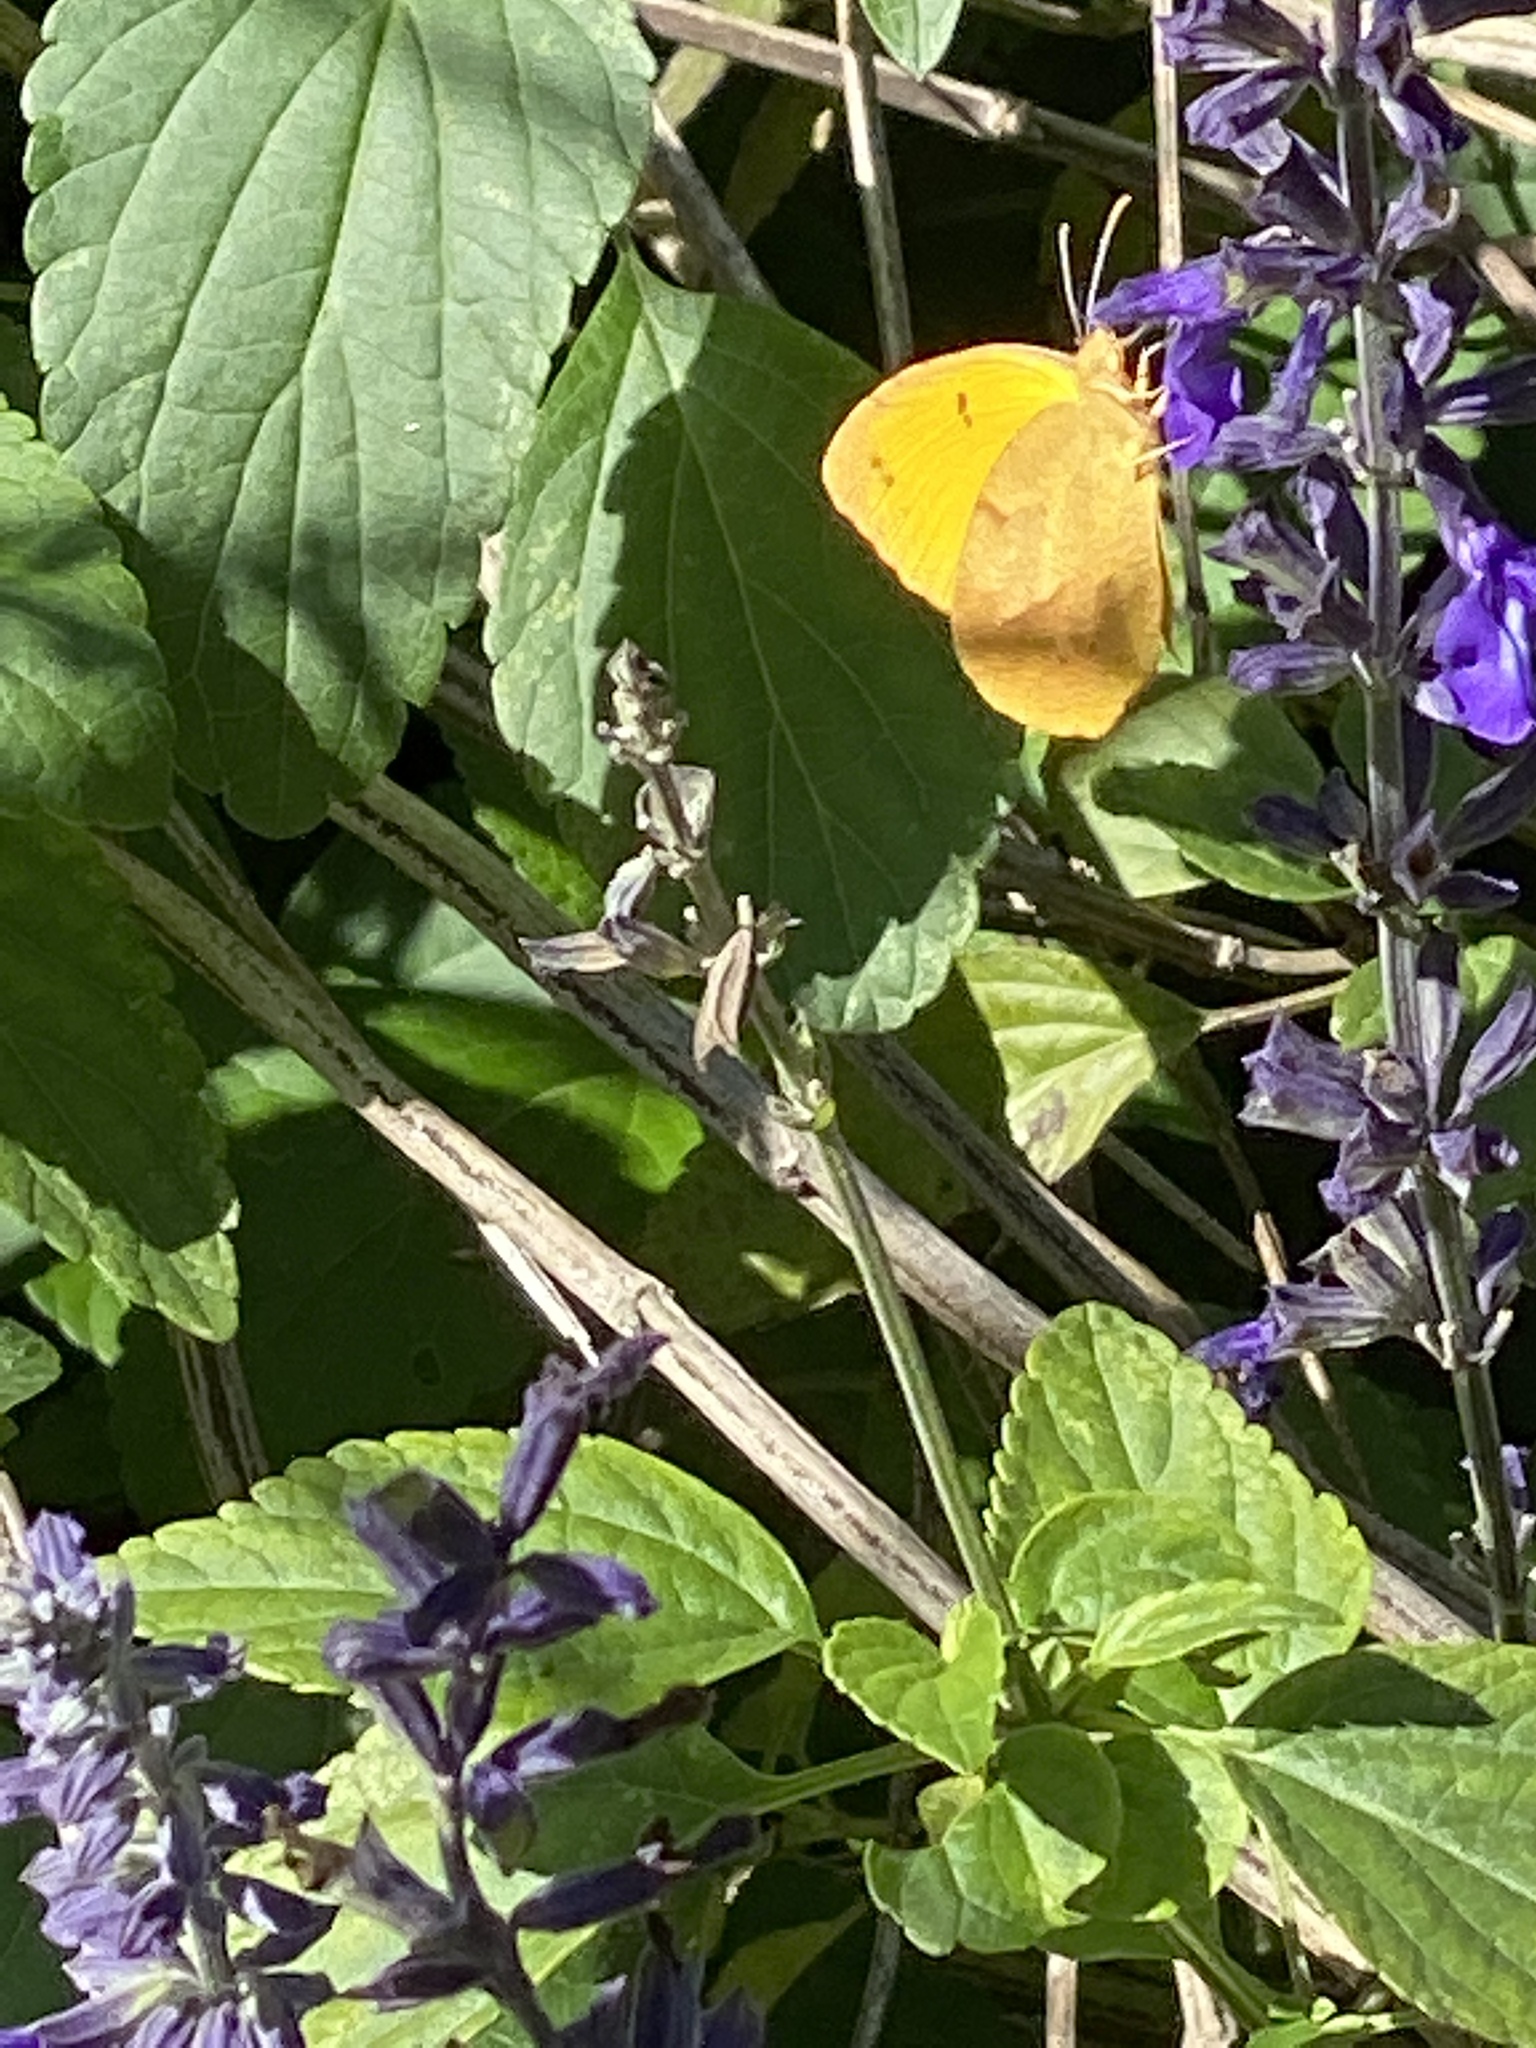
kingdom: Animalia
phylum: Arthropoda
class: Insecta
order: Lepidoptera
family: Pieridae
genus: Abaeis
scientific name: Abaeis nicippe
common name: Sleepy orange
